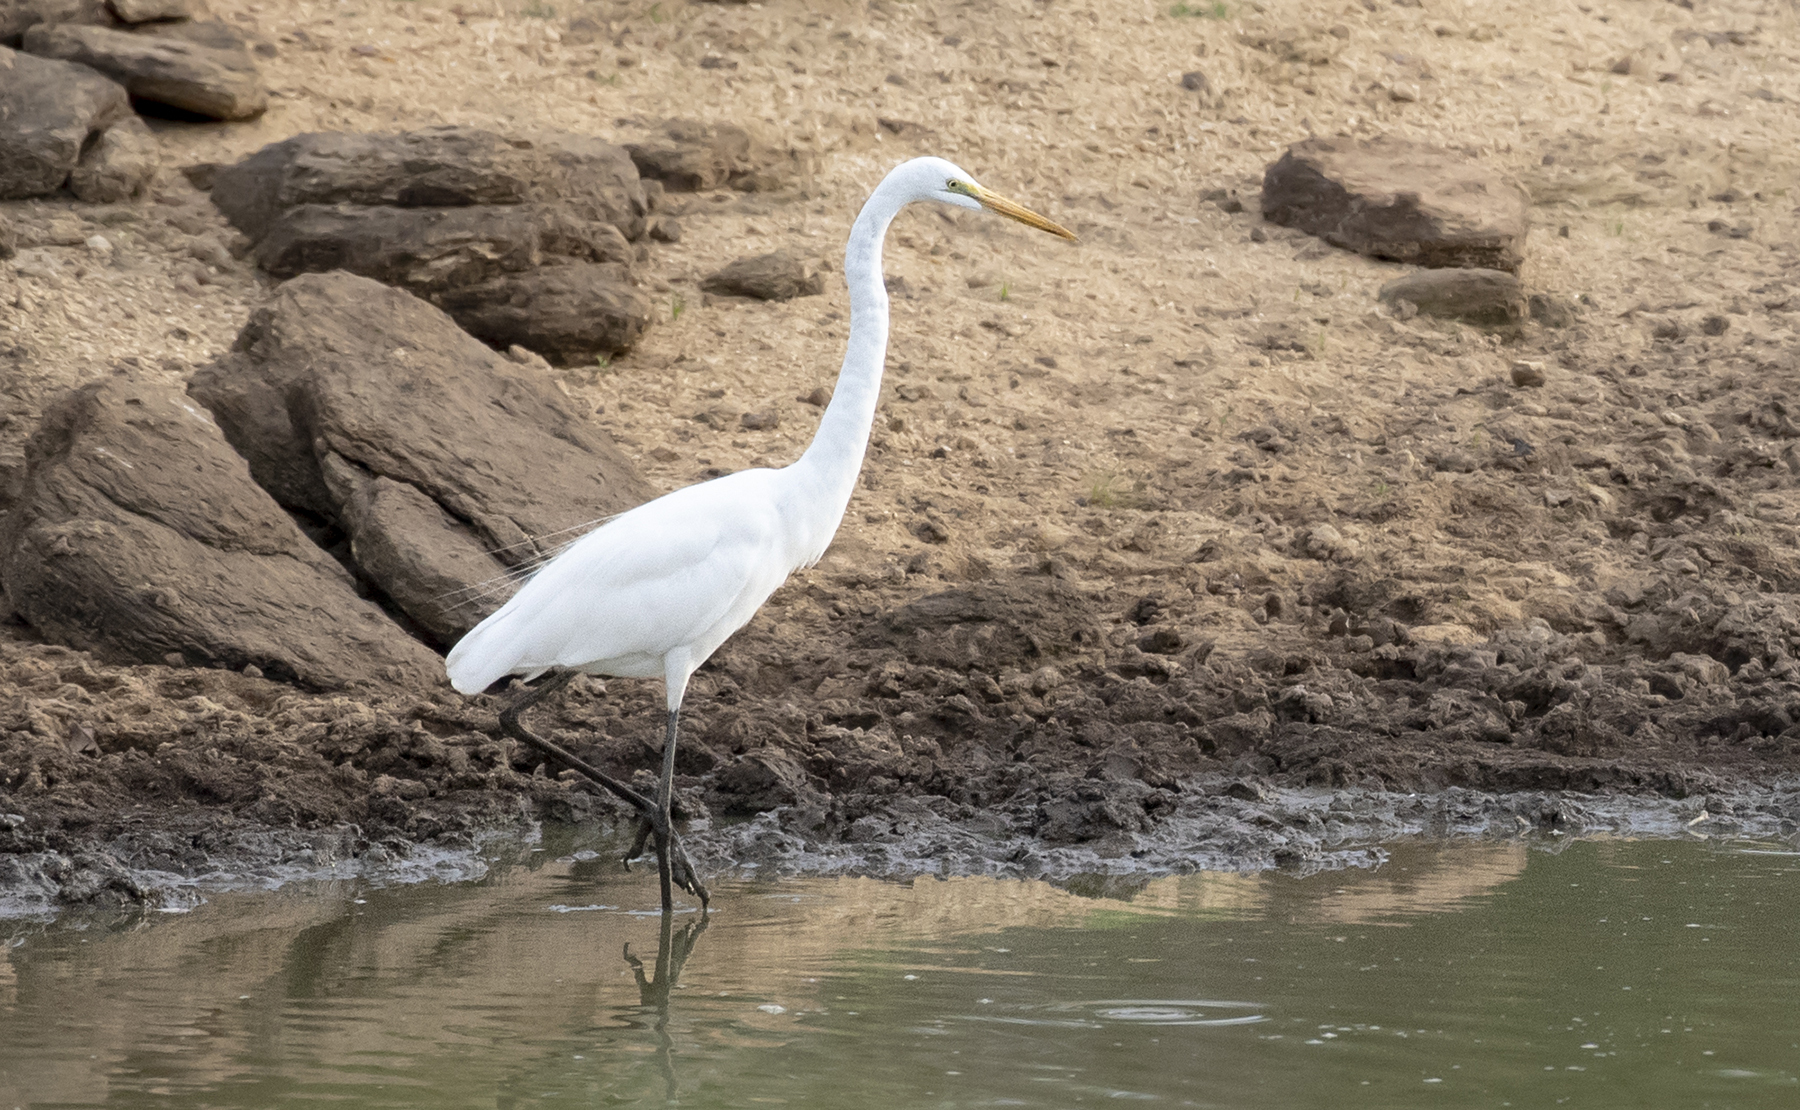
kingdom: Animalia
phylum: Chordata
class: Aves
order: Pelecaniformes
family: Ardeidae
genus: Ardea
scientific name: Ardea alba
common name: Great egret
